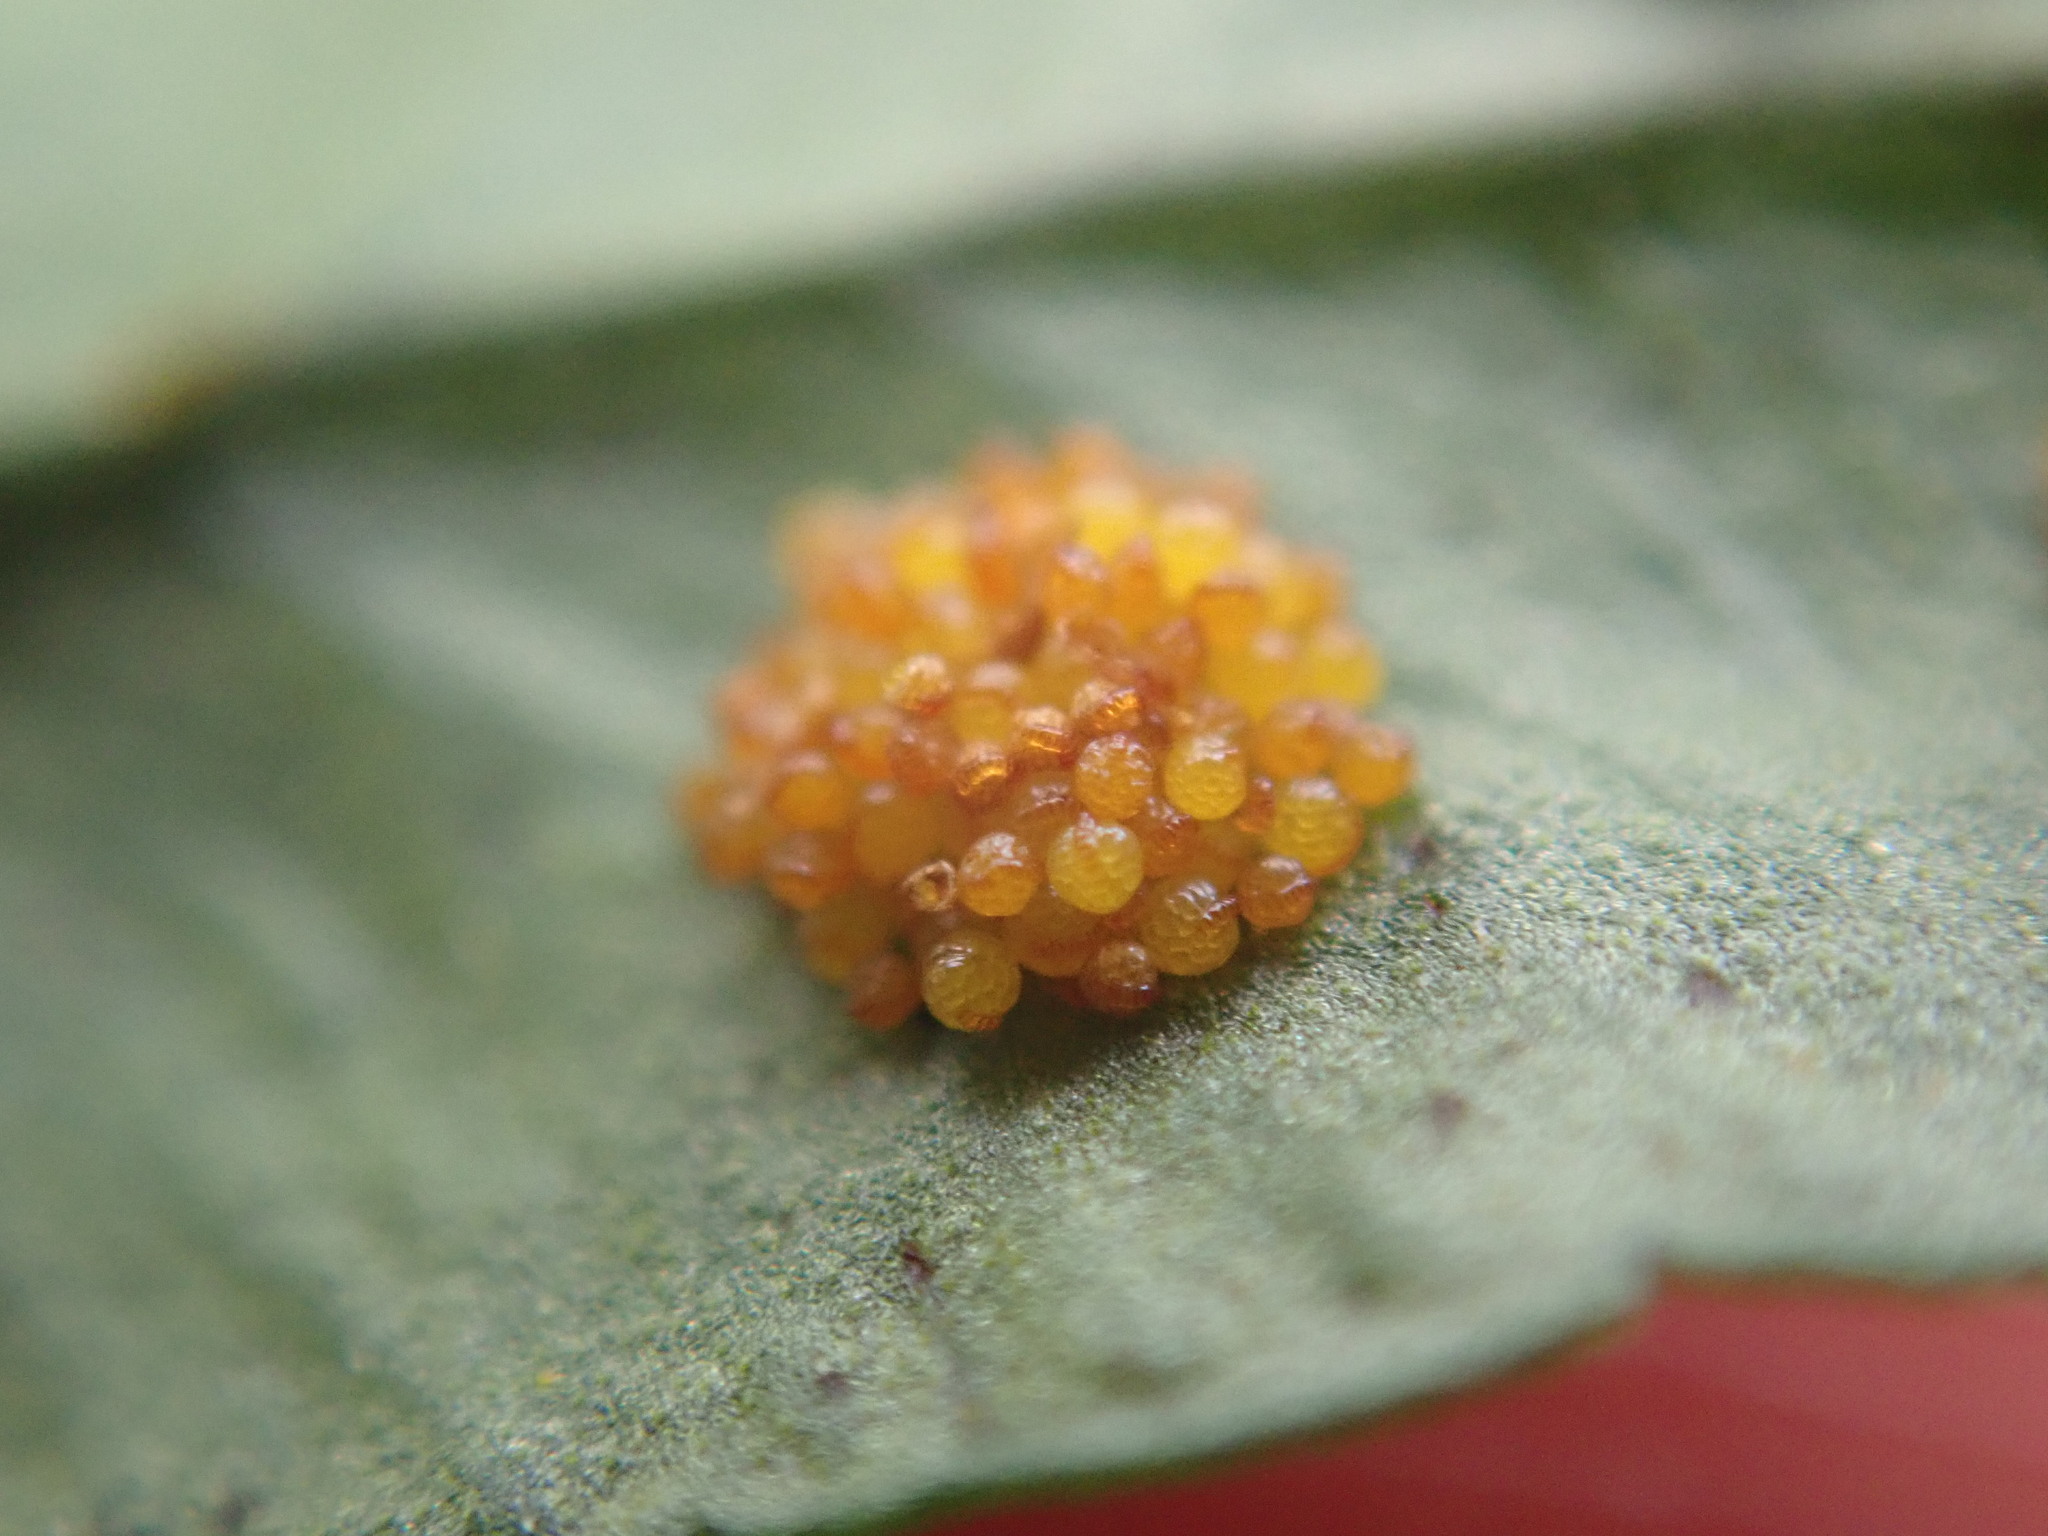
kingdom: Plantae
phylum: Tracheophyta
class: Polypodiopsida
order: Polypodiales
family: Polypodiaceae
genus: Polypodium
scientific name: Polypodium vulgare
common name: Common polypody
